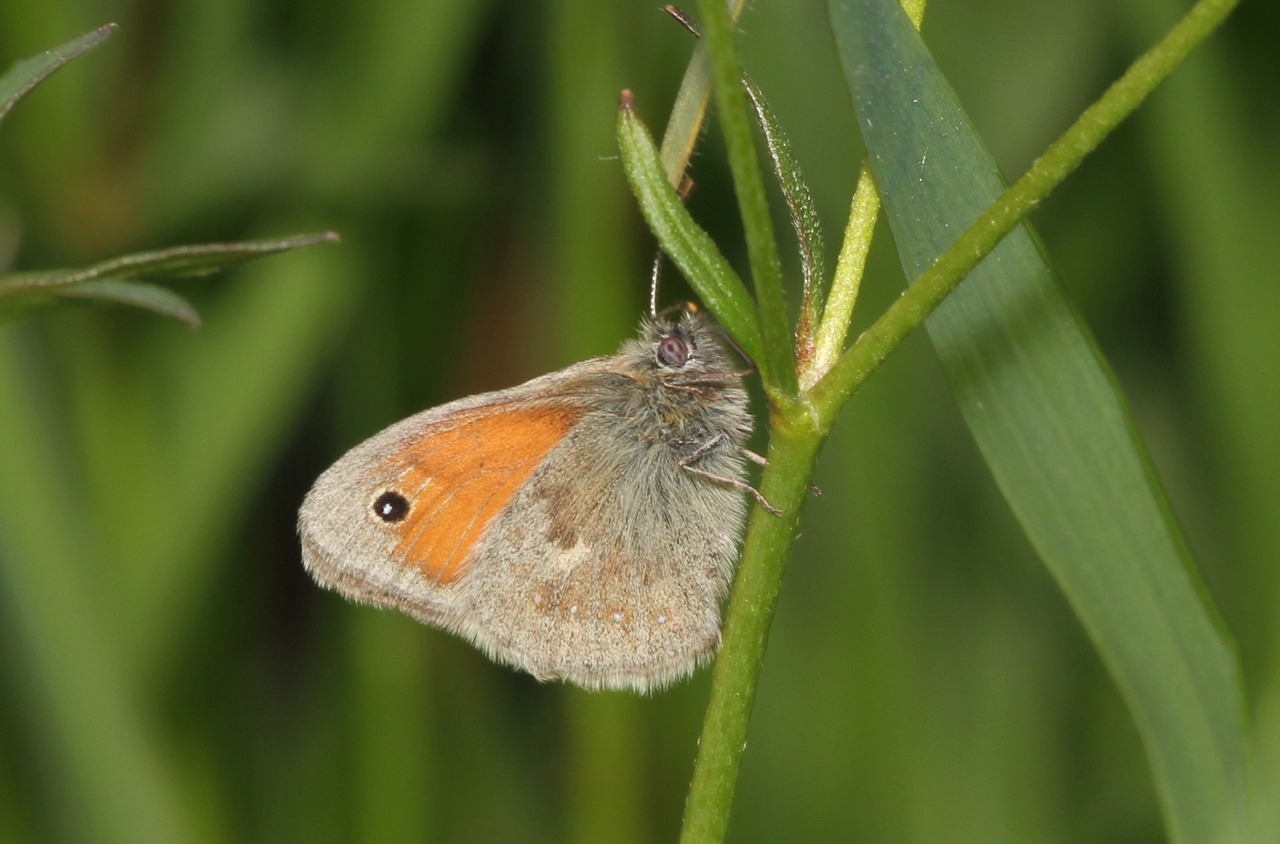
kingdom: Animalia
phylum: Arthropoda
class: Insecta
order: Lepidoptera
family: Nymphalidae
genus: Coenonympha
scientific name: Coenonympha pamphilus
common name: Small heath
